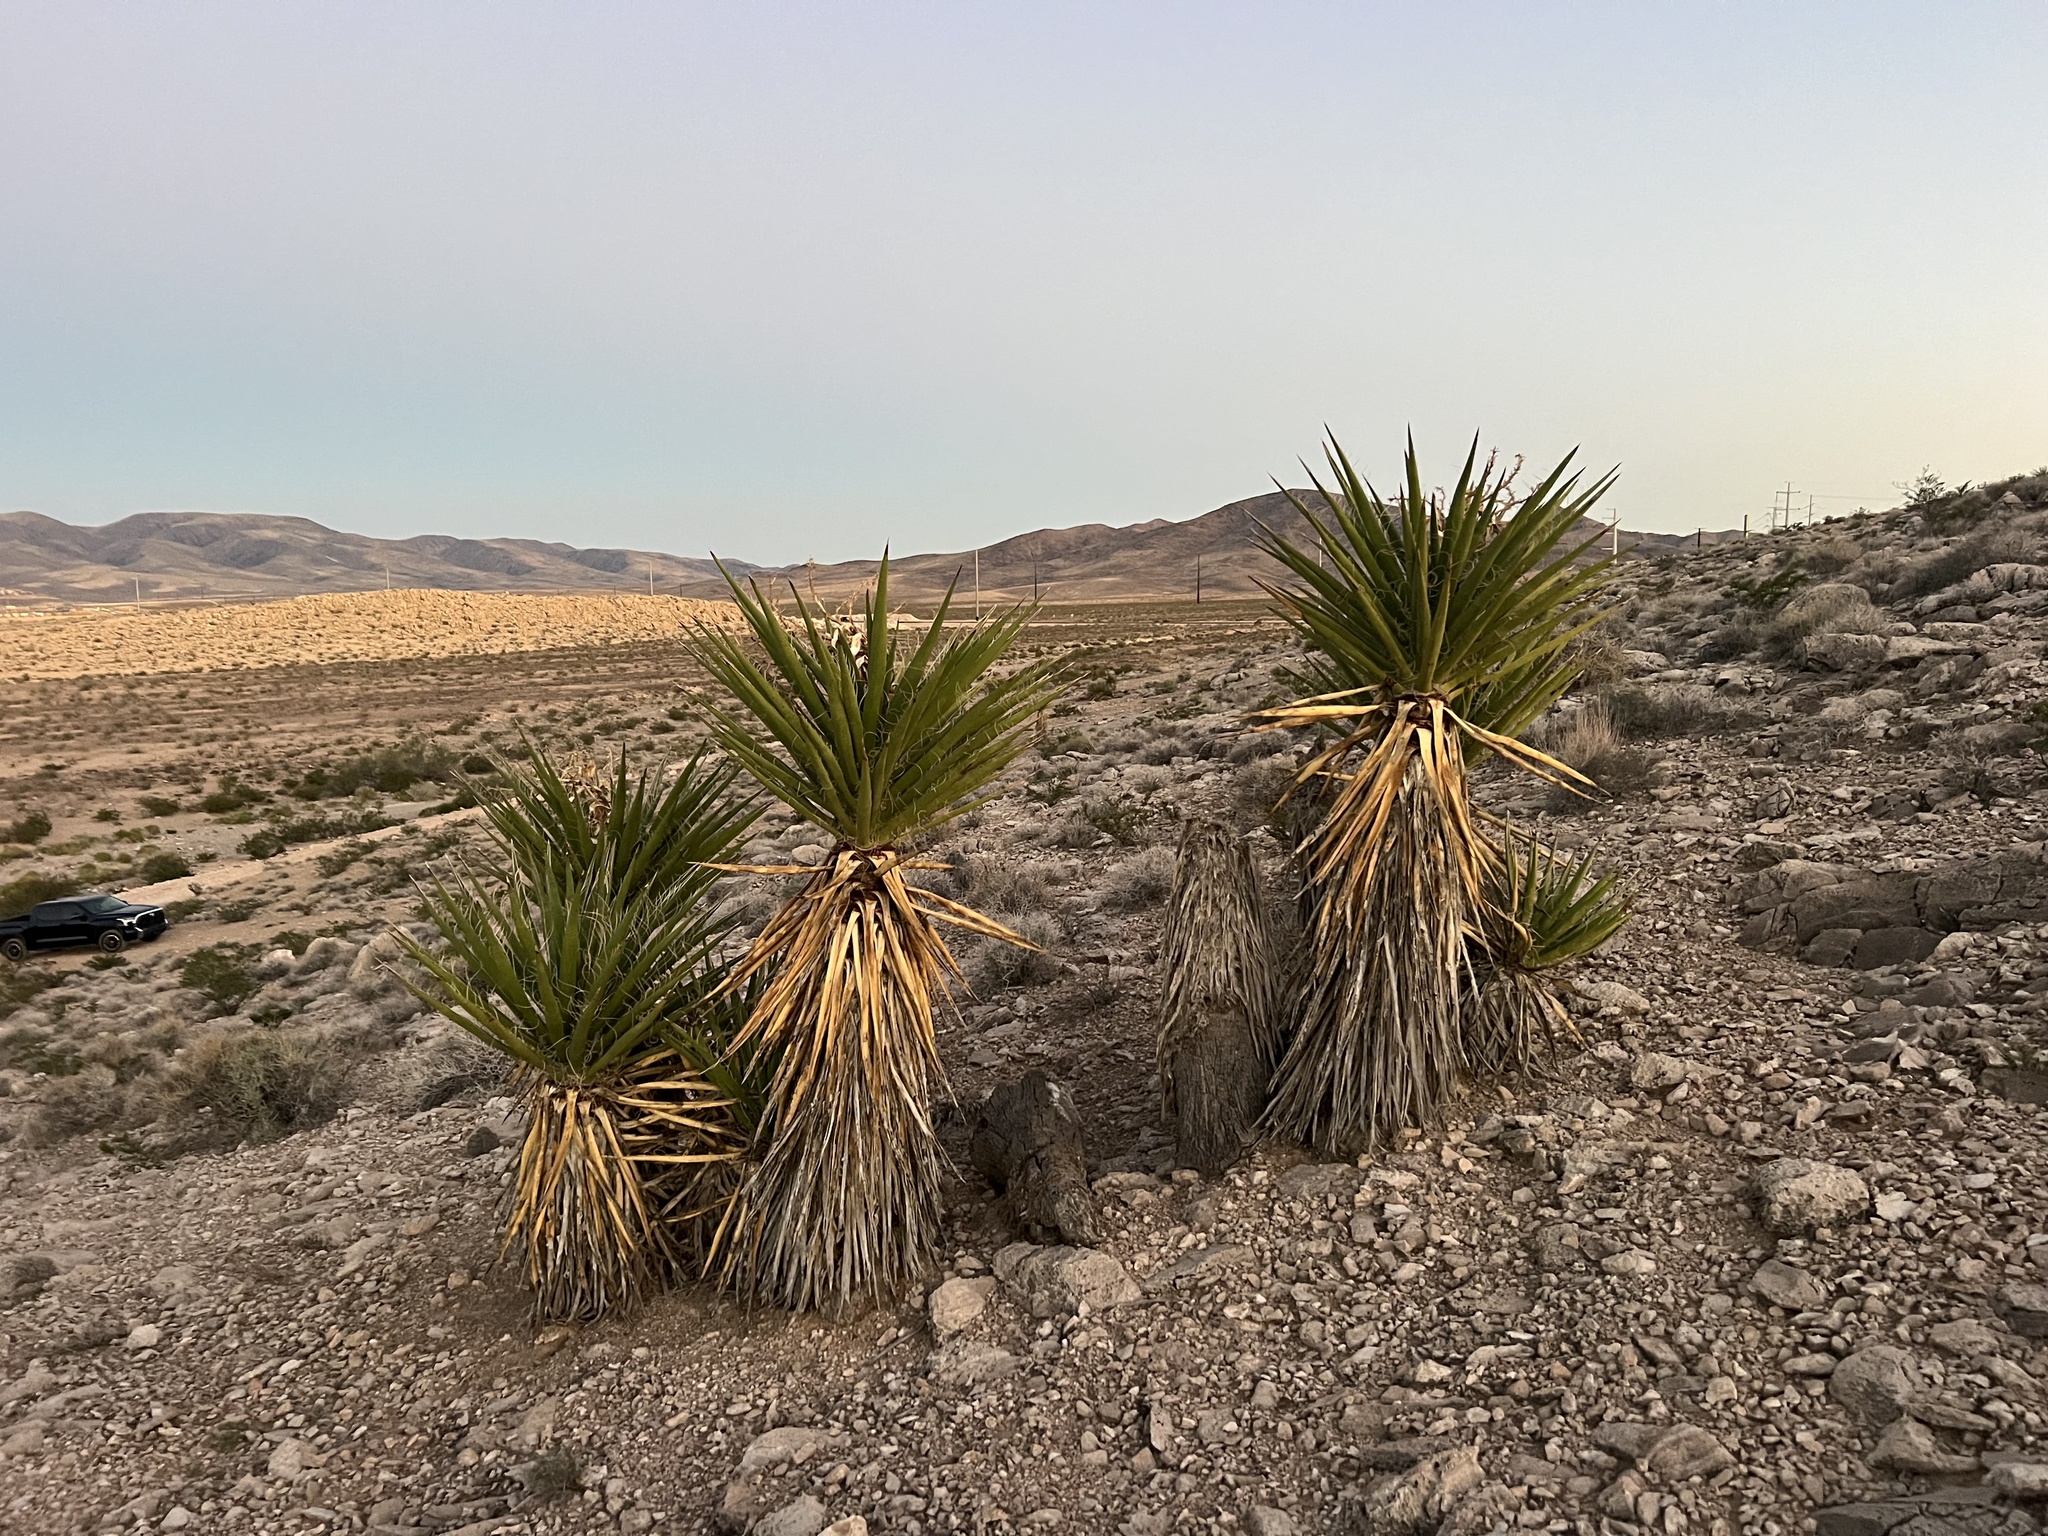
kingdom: Plantae
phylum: Tracheophyta
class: Liliopsida
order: Asparagales
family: Asparagaceae
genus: Yucca
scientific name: Yucca schidigera
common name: Mojave yucca
